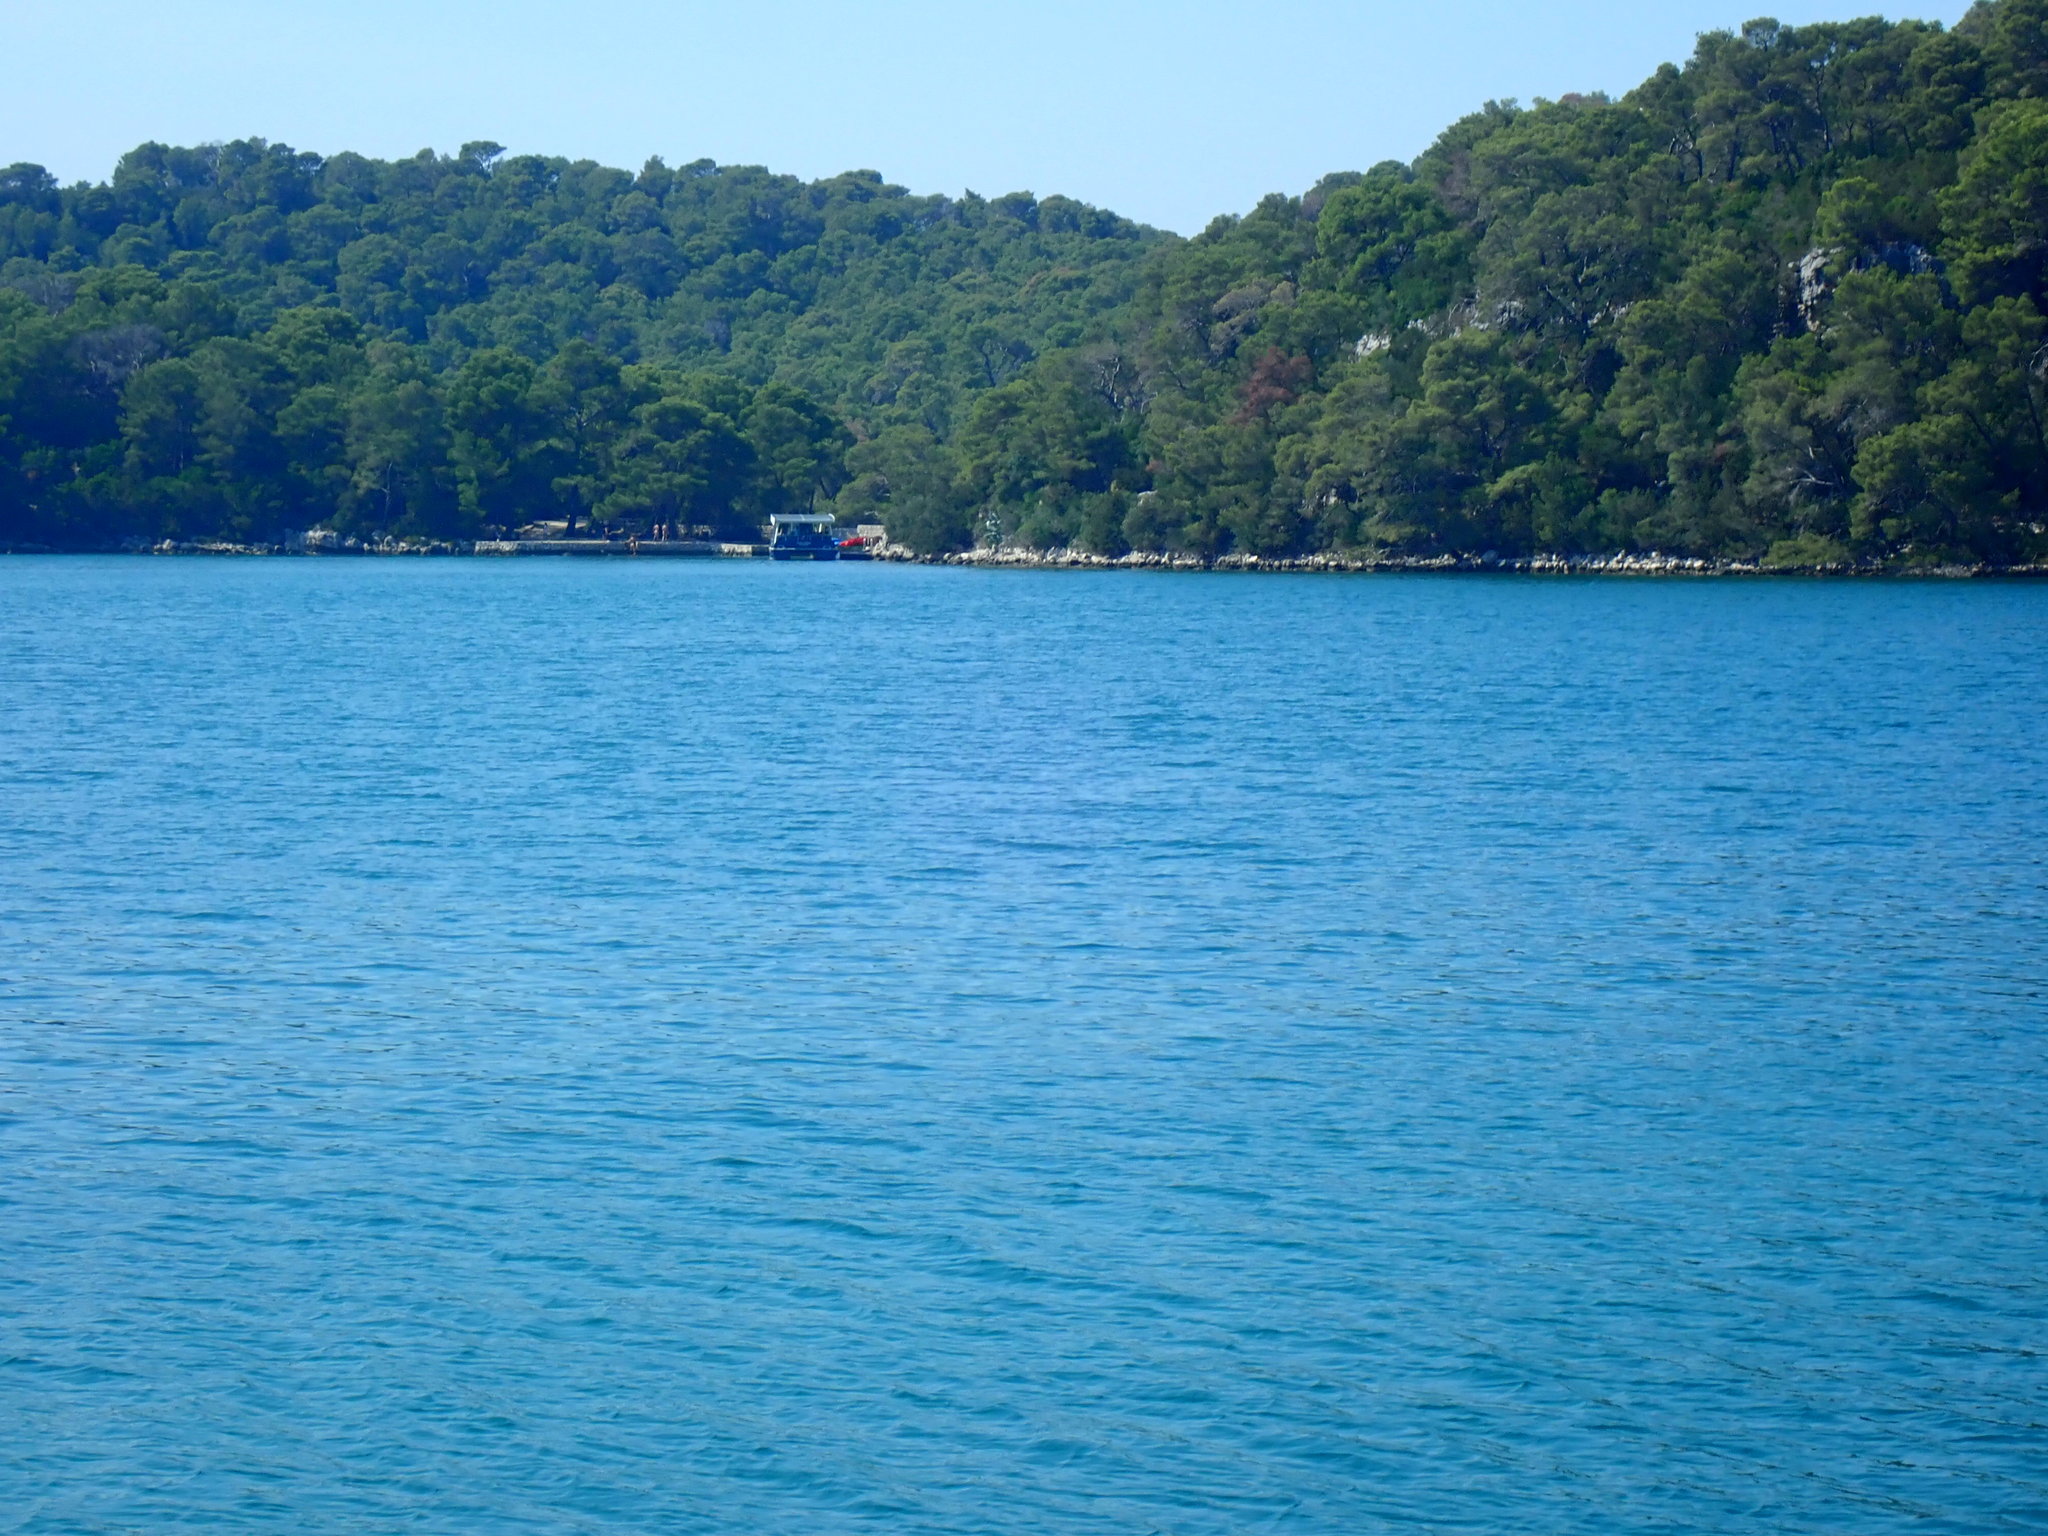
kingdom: Plantae
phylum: Tracheophyta
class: Pinopsida
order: Pinales
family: Pinaceae
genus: Pinus
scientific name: Pinus halepensis
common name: Aleppo pine
